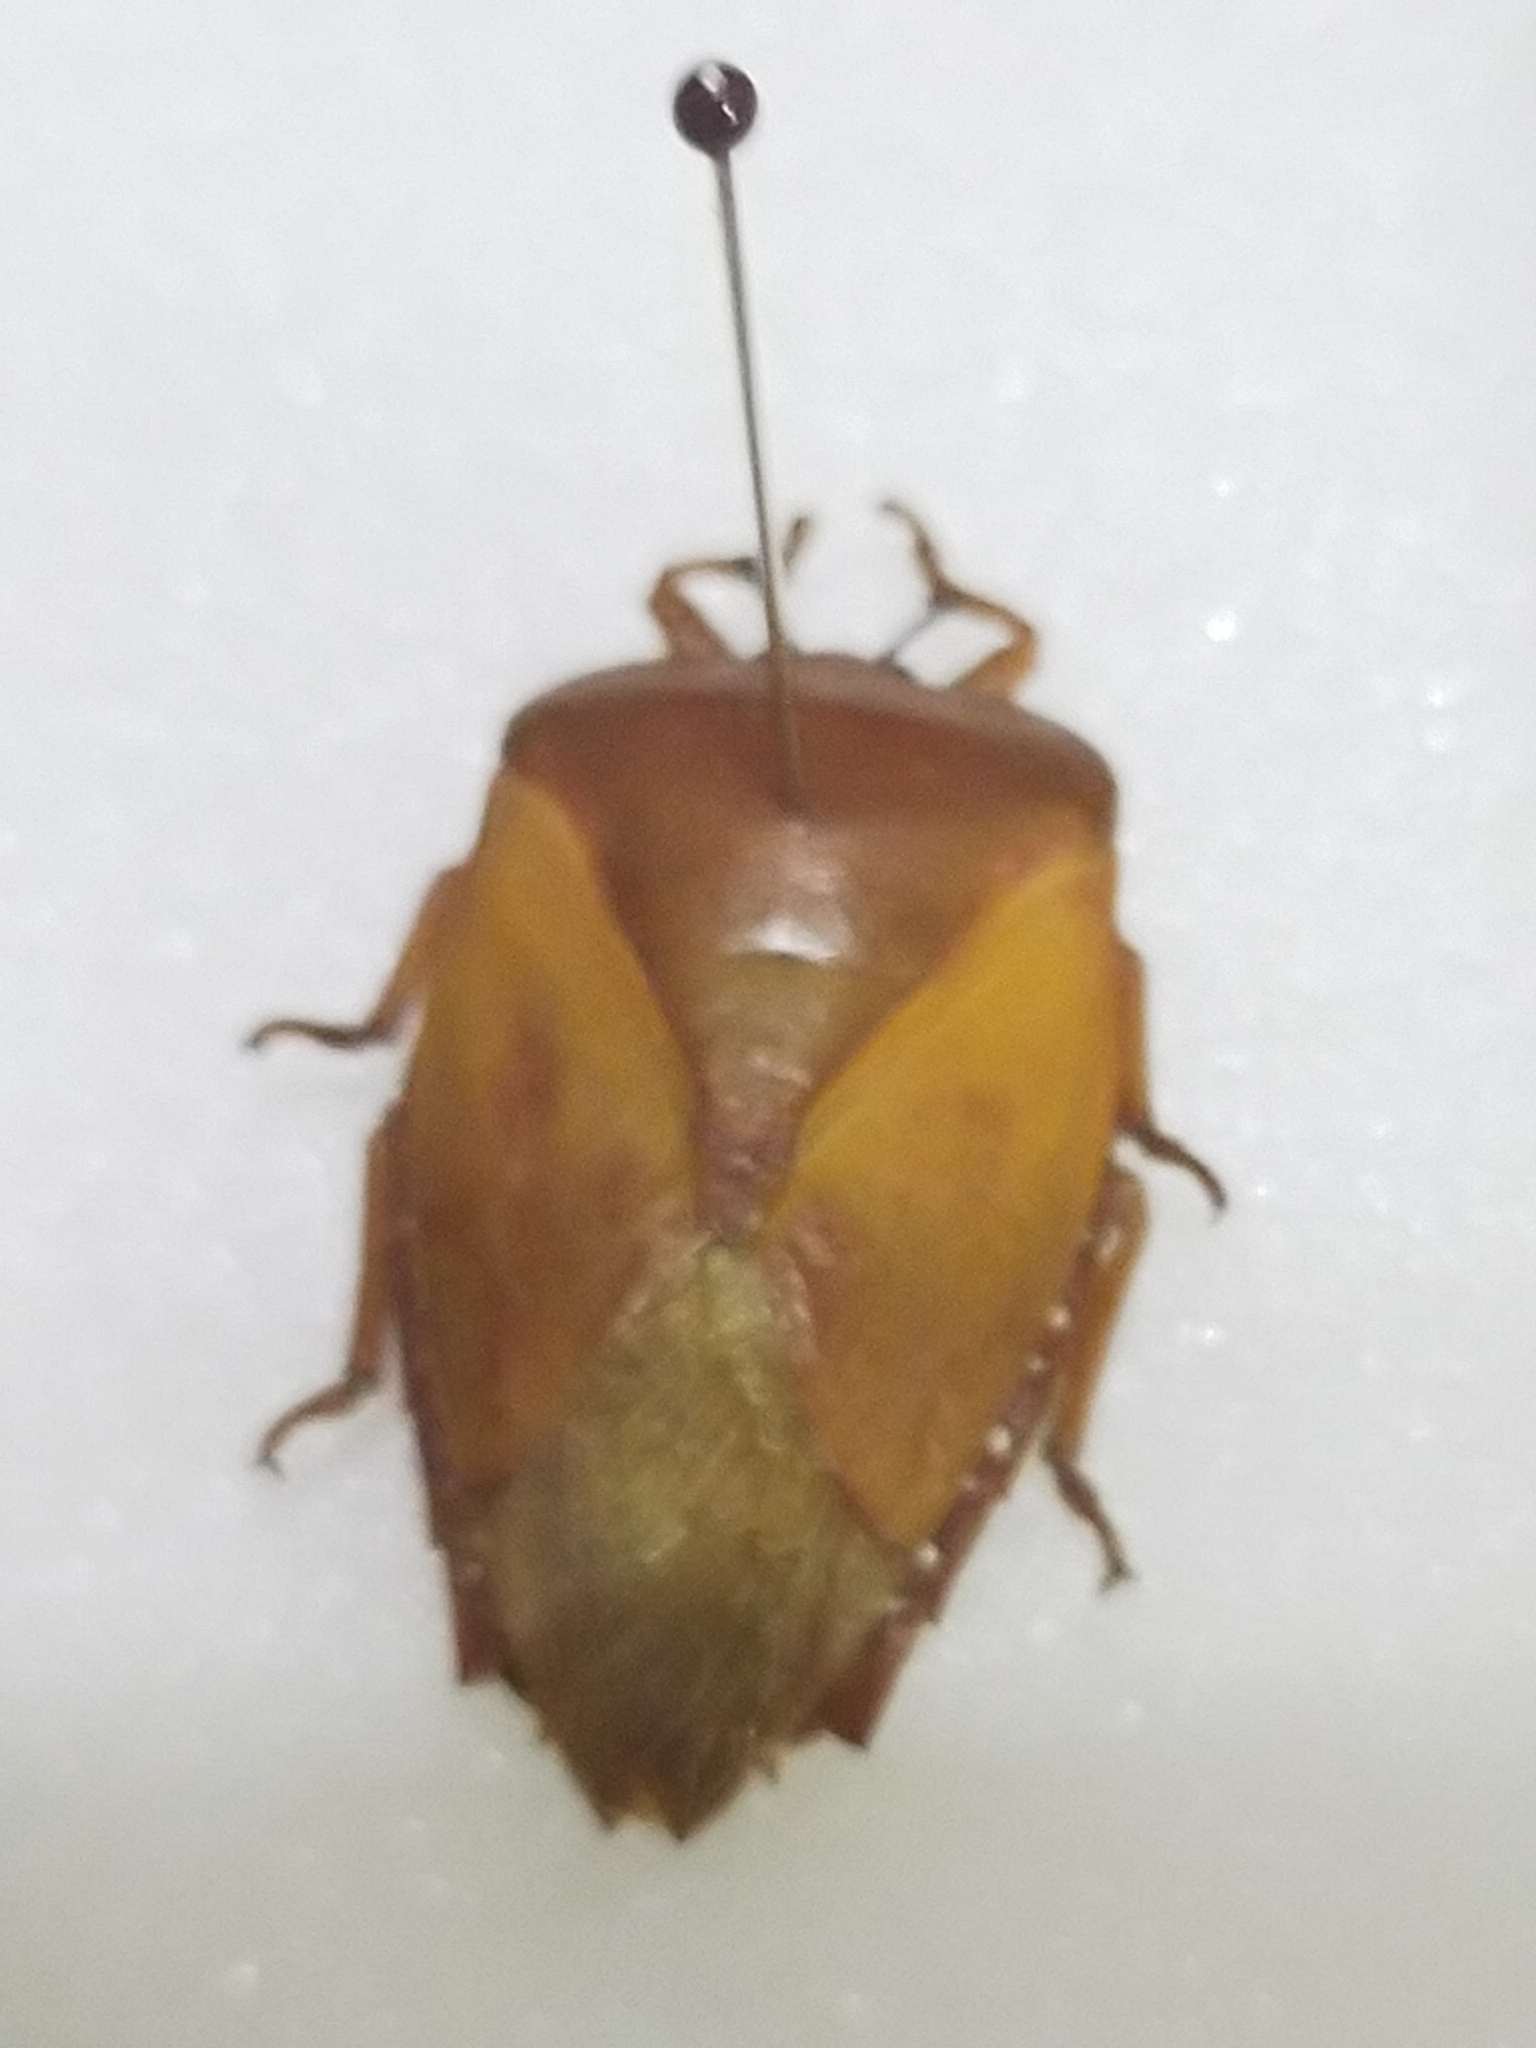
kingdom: Animalia
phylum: Arthropoda
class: Insecta
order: Hemiptera
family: Tessaratomidae
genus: Tessaratoma
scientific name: Tessaratoma papillosa
